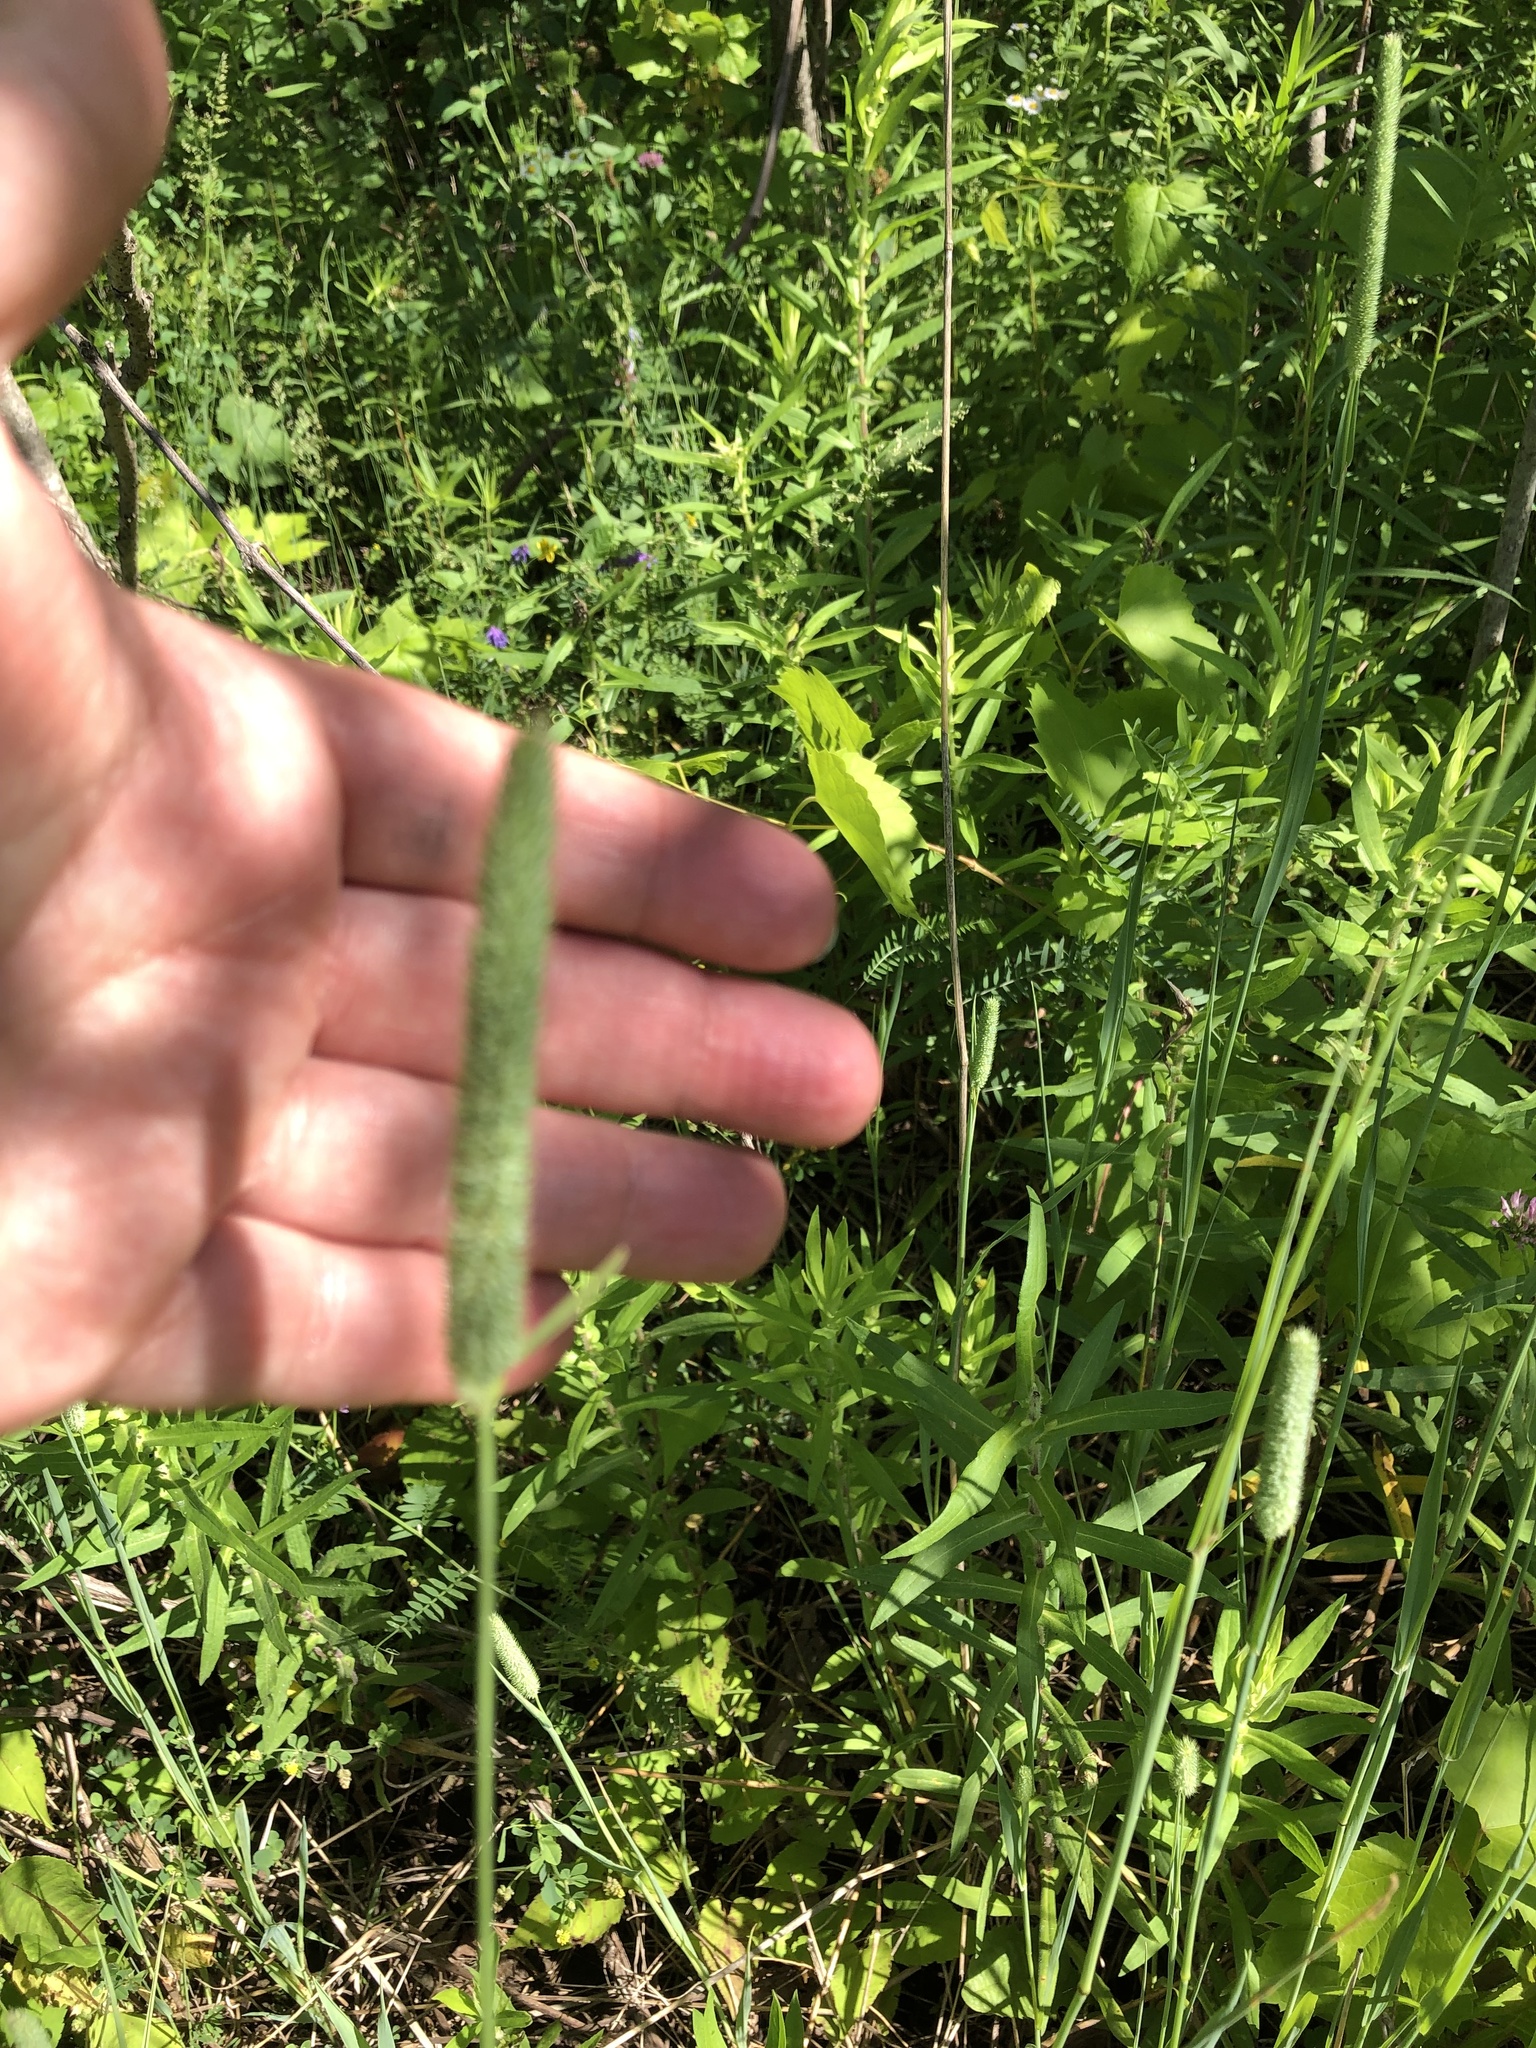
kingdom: Plantae
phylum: Tracheophyta
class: Liliopsida
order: Poales
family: Poaceae
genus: Phleum
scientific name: Phleum pratense
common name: Timothy grass
